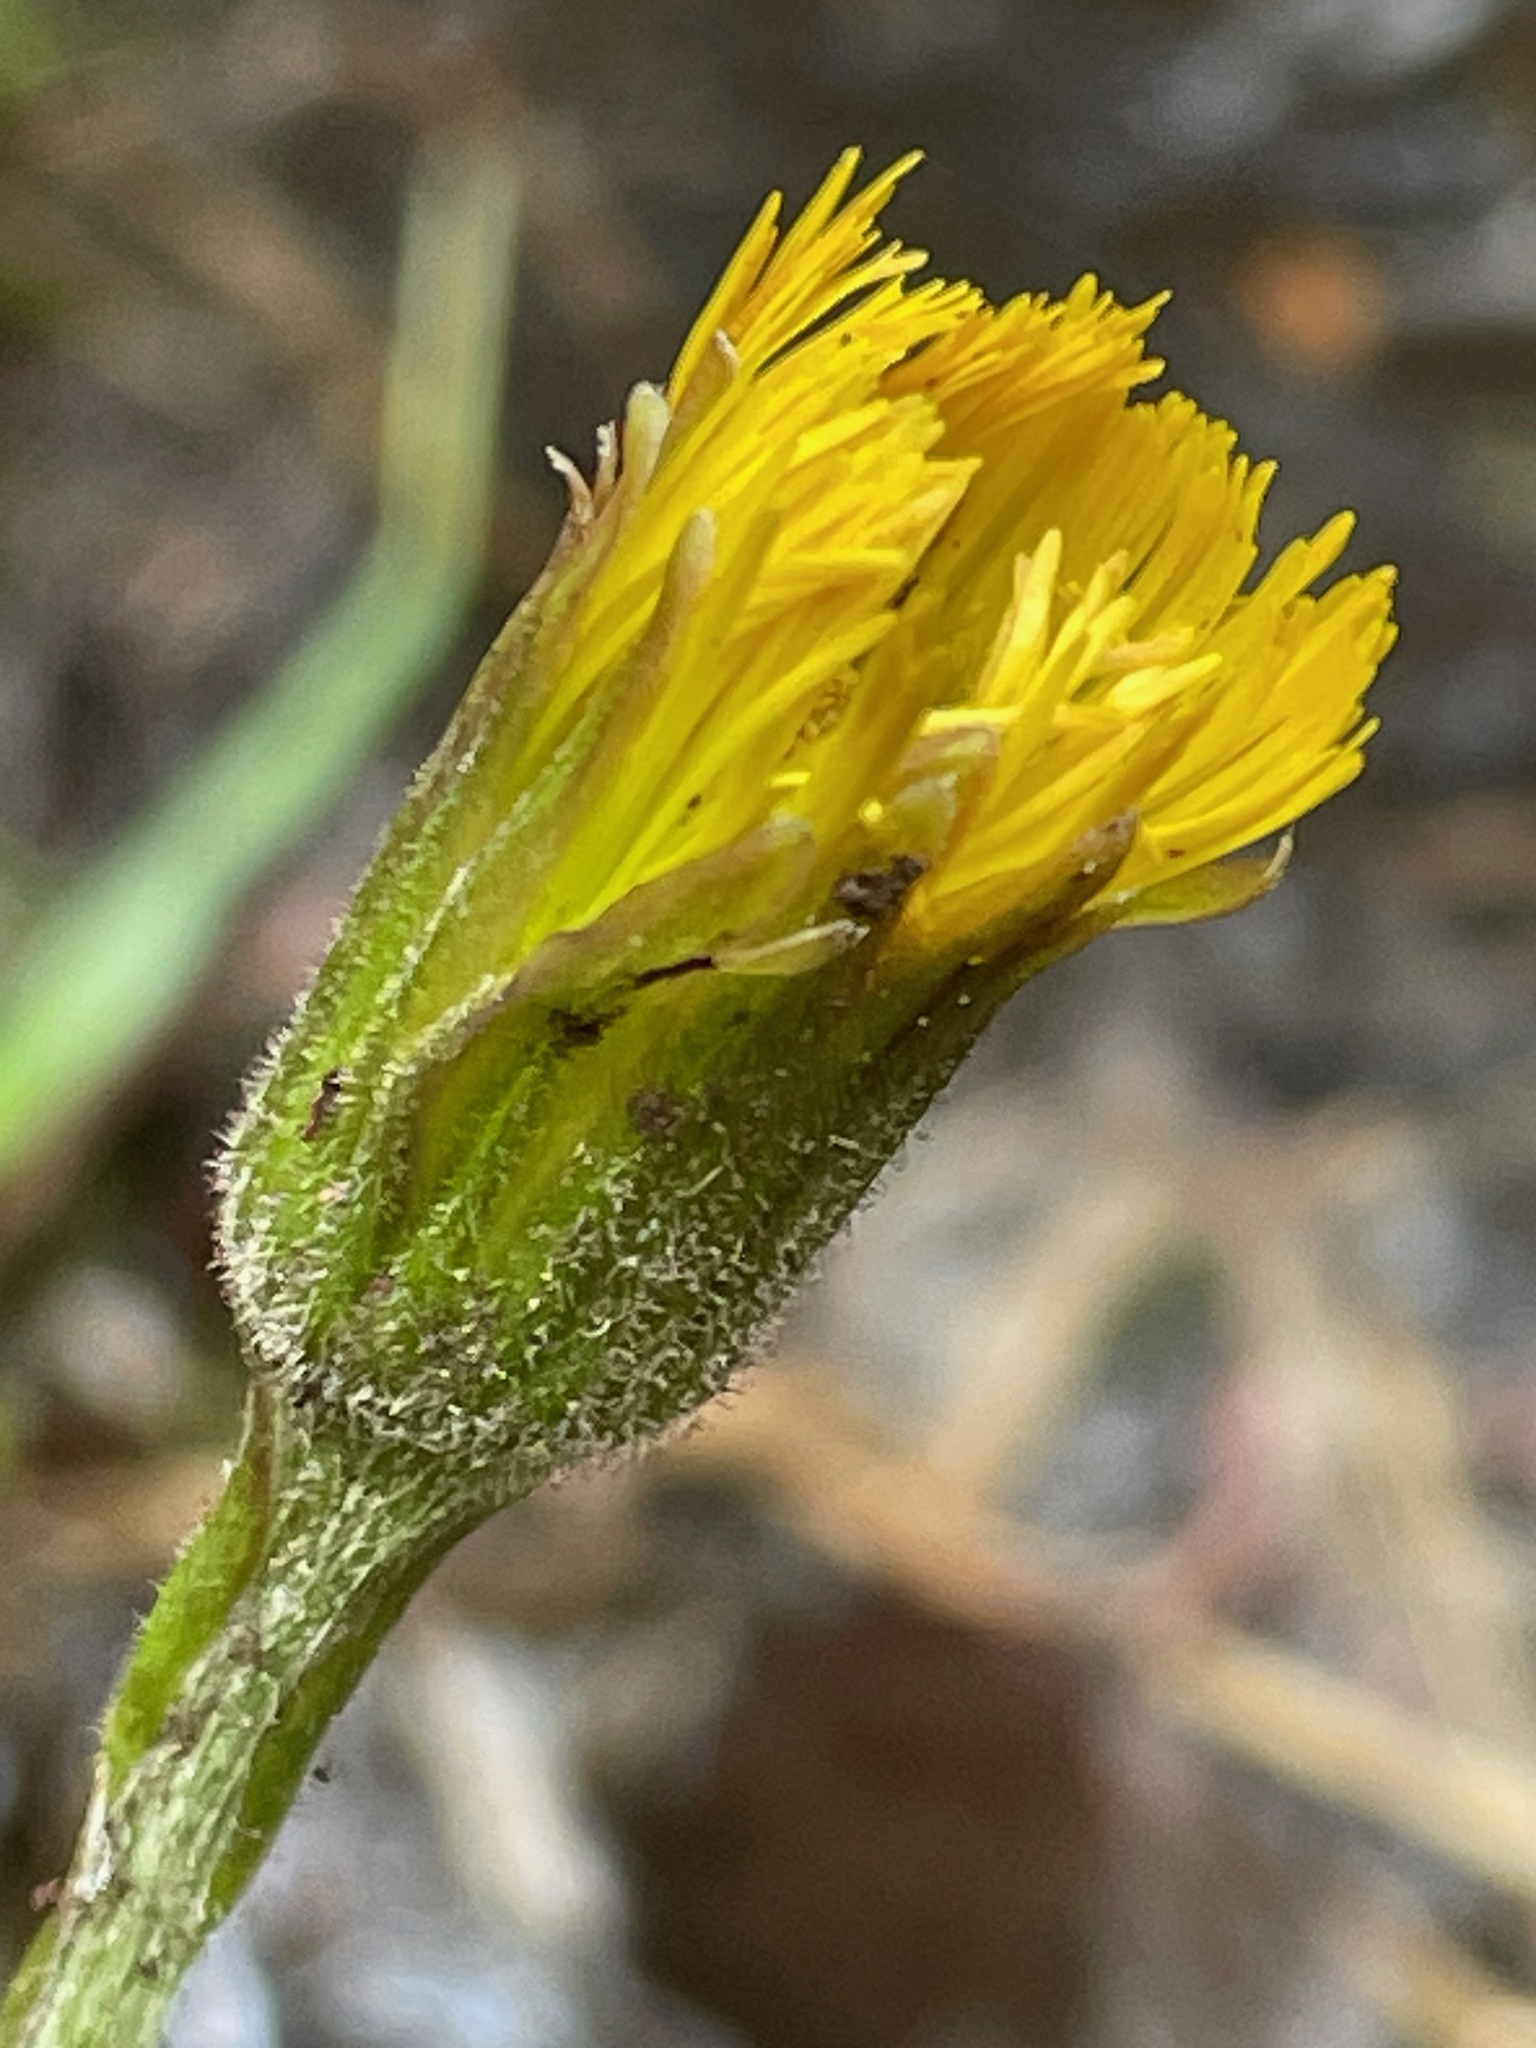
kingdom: Plantae
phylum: Tracheophyta
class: Magnoliopsida
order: Asterales
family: Asteraceae
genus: Tussilago
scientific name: Tussilago farfara
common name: Coltsfoot
